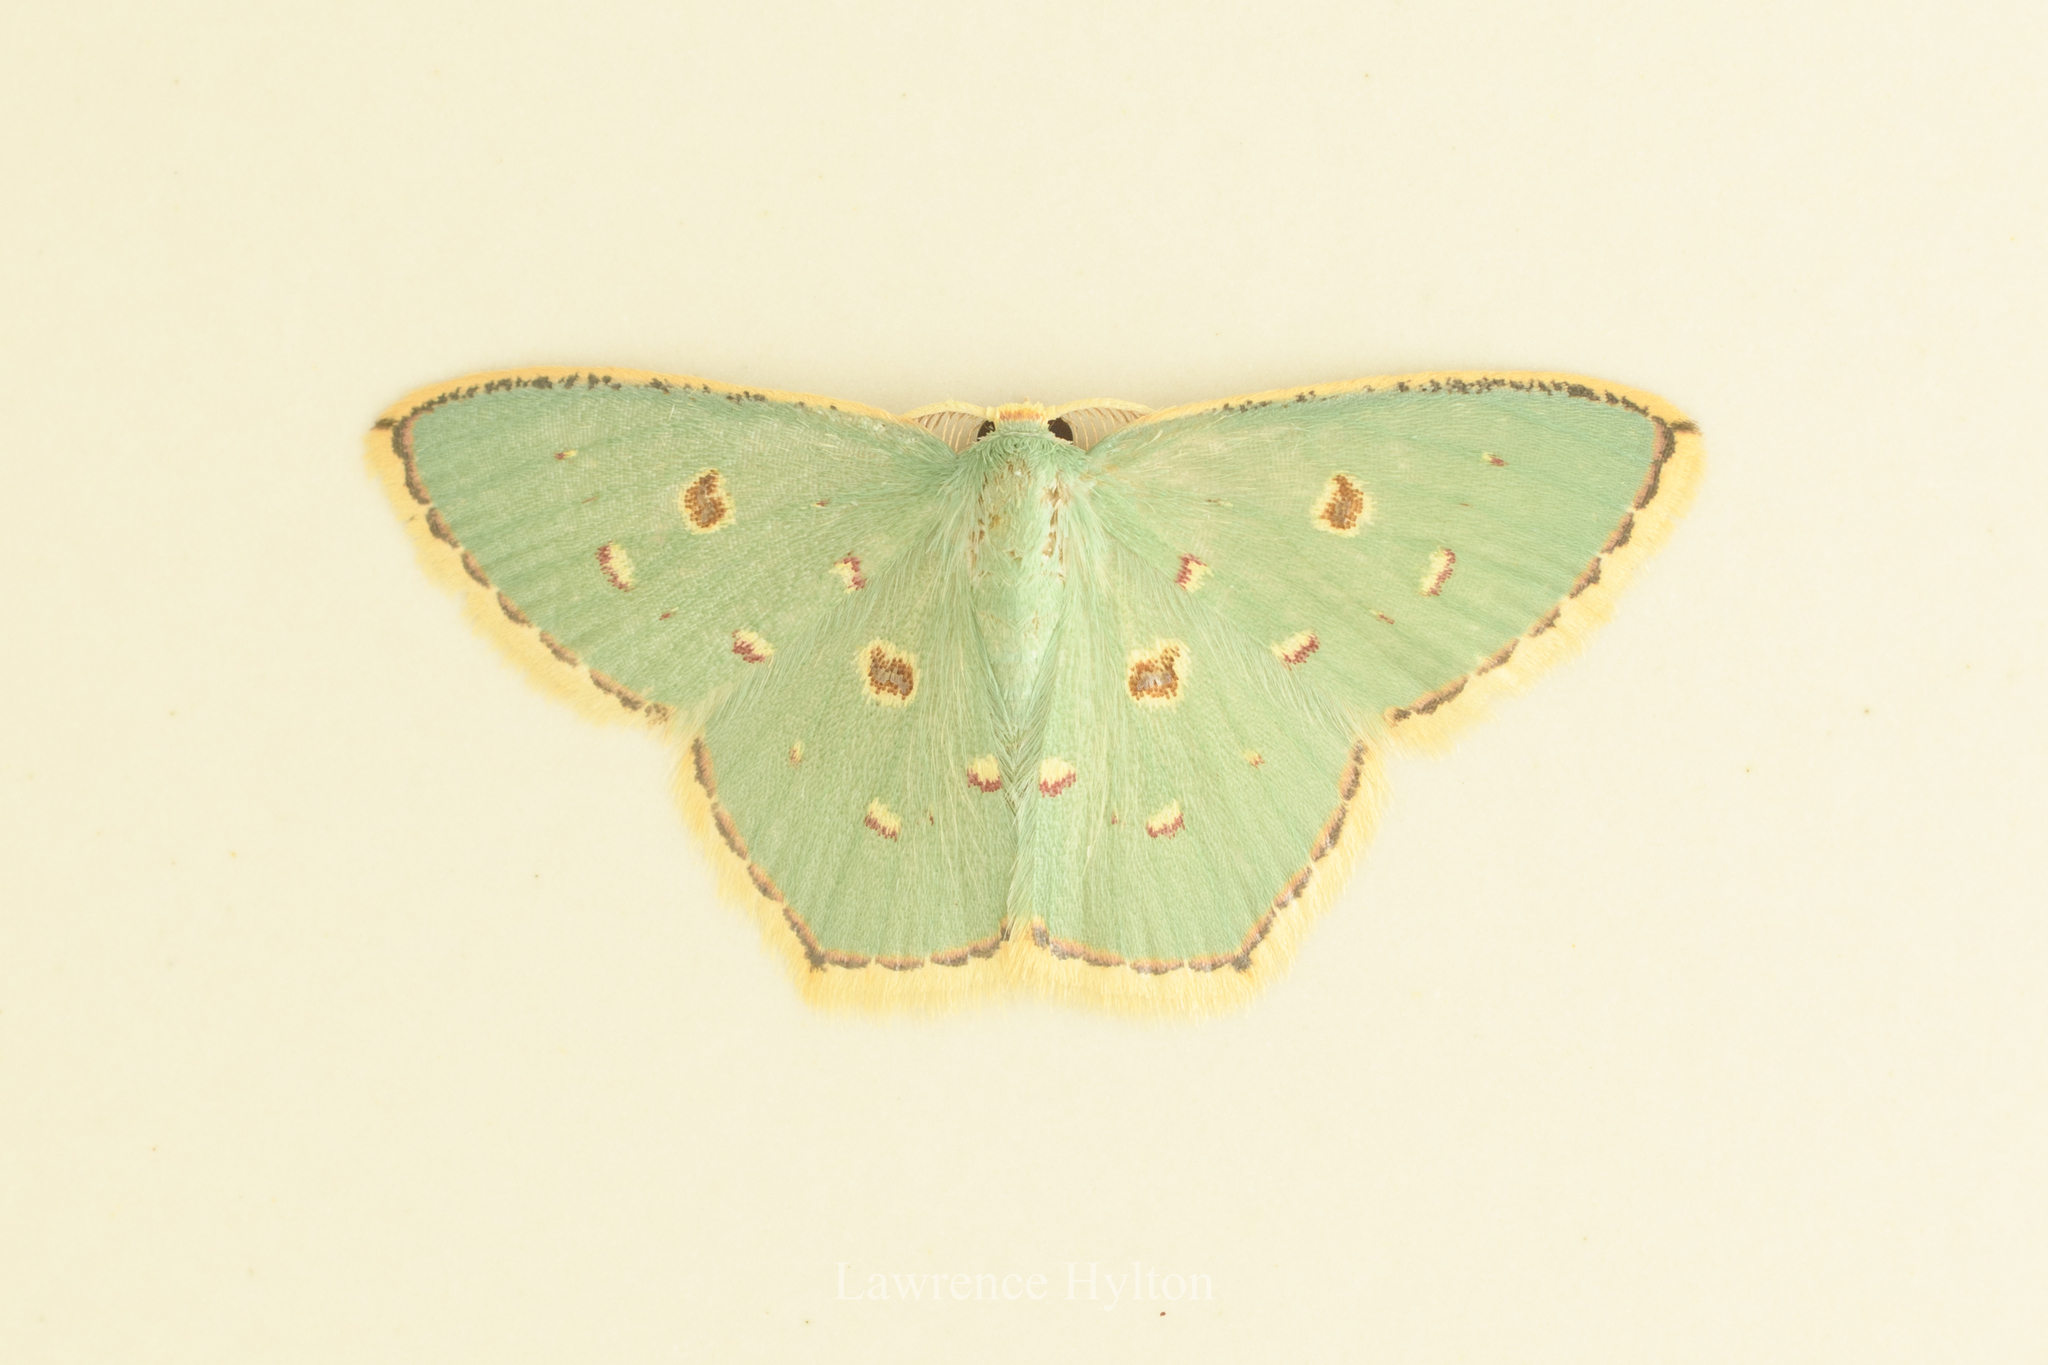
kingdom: Animalia
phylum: Arthropoda
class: Insecta
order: Lepidoptera
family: Geometridae
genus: Comostola
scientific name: Comostola meritaria
